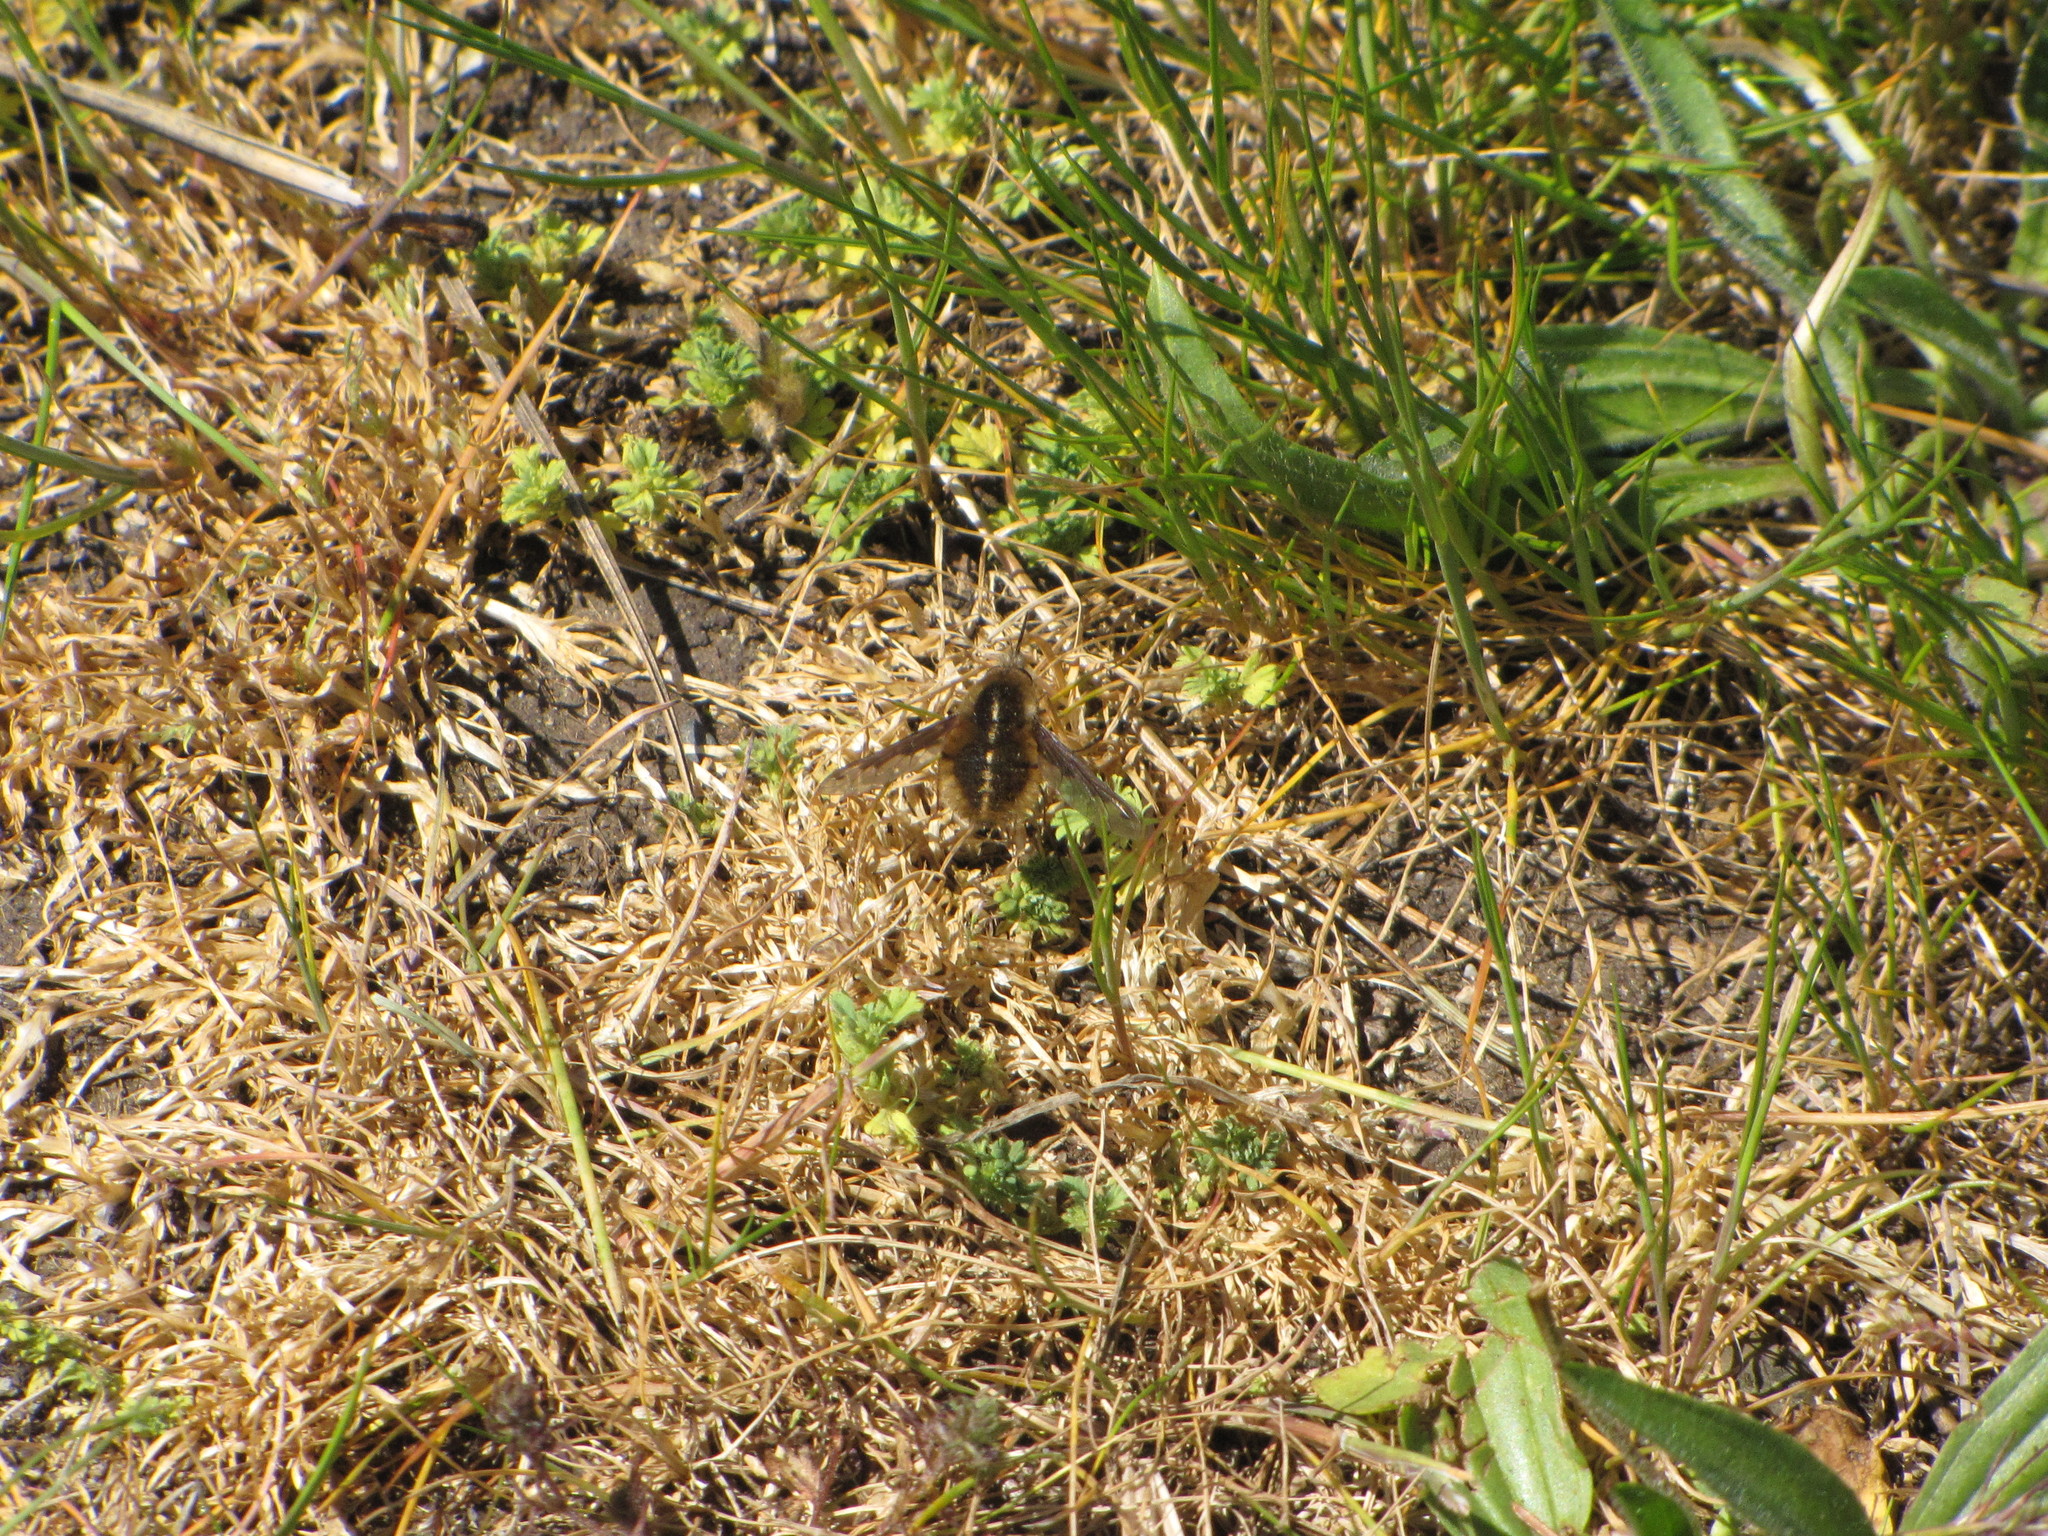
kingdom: Animalia
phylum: Arthropoda
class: Insecta
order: Diptera
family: Bombyliidae
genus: Bombylius
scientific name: Bombylius major
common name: Bee fly
